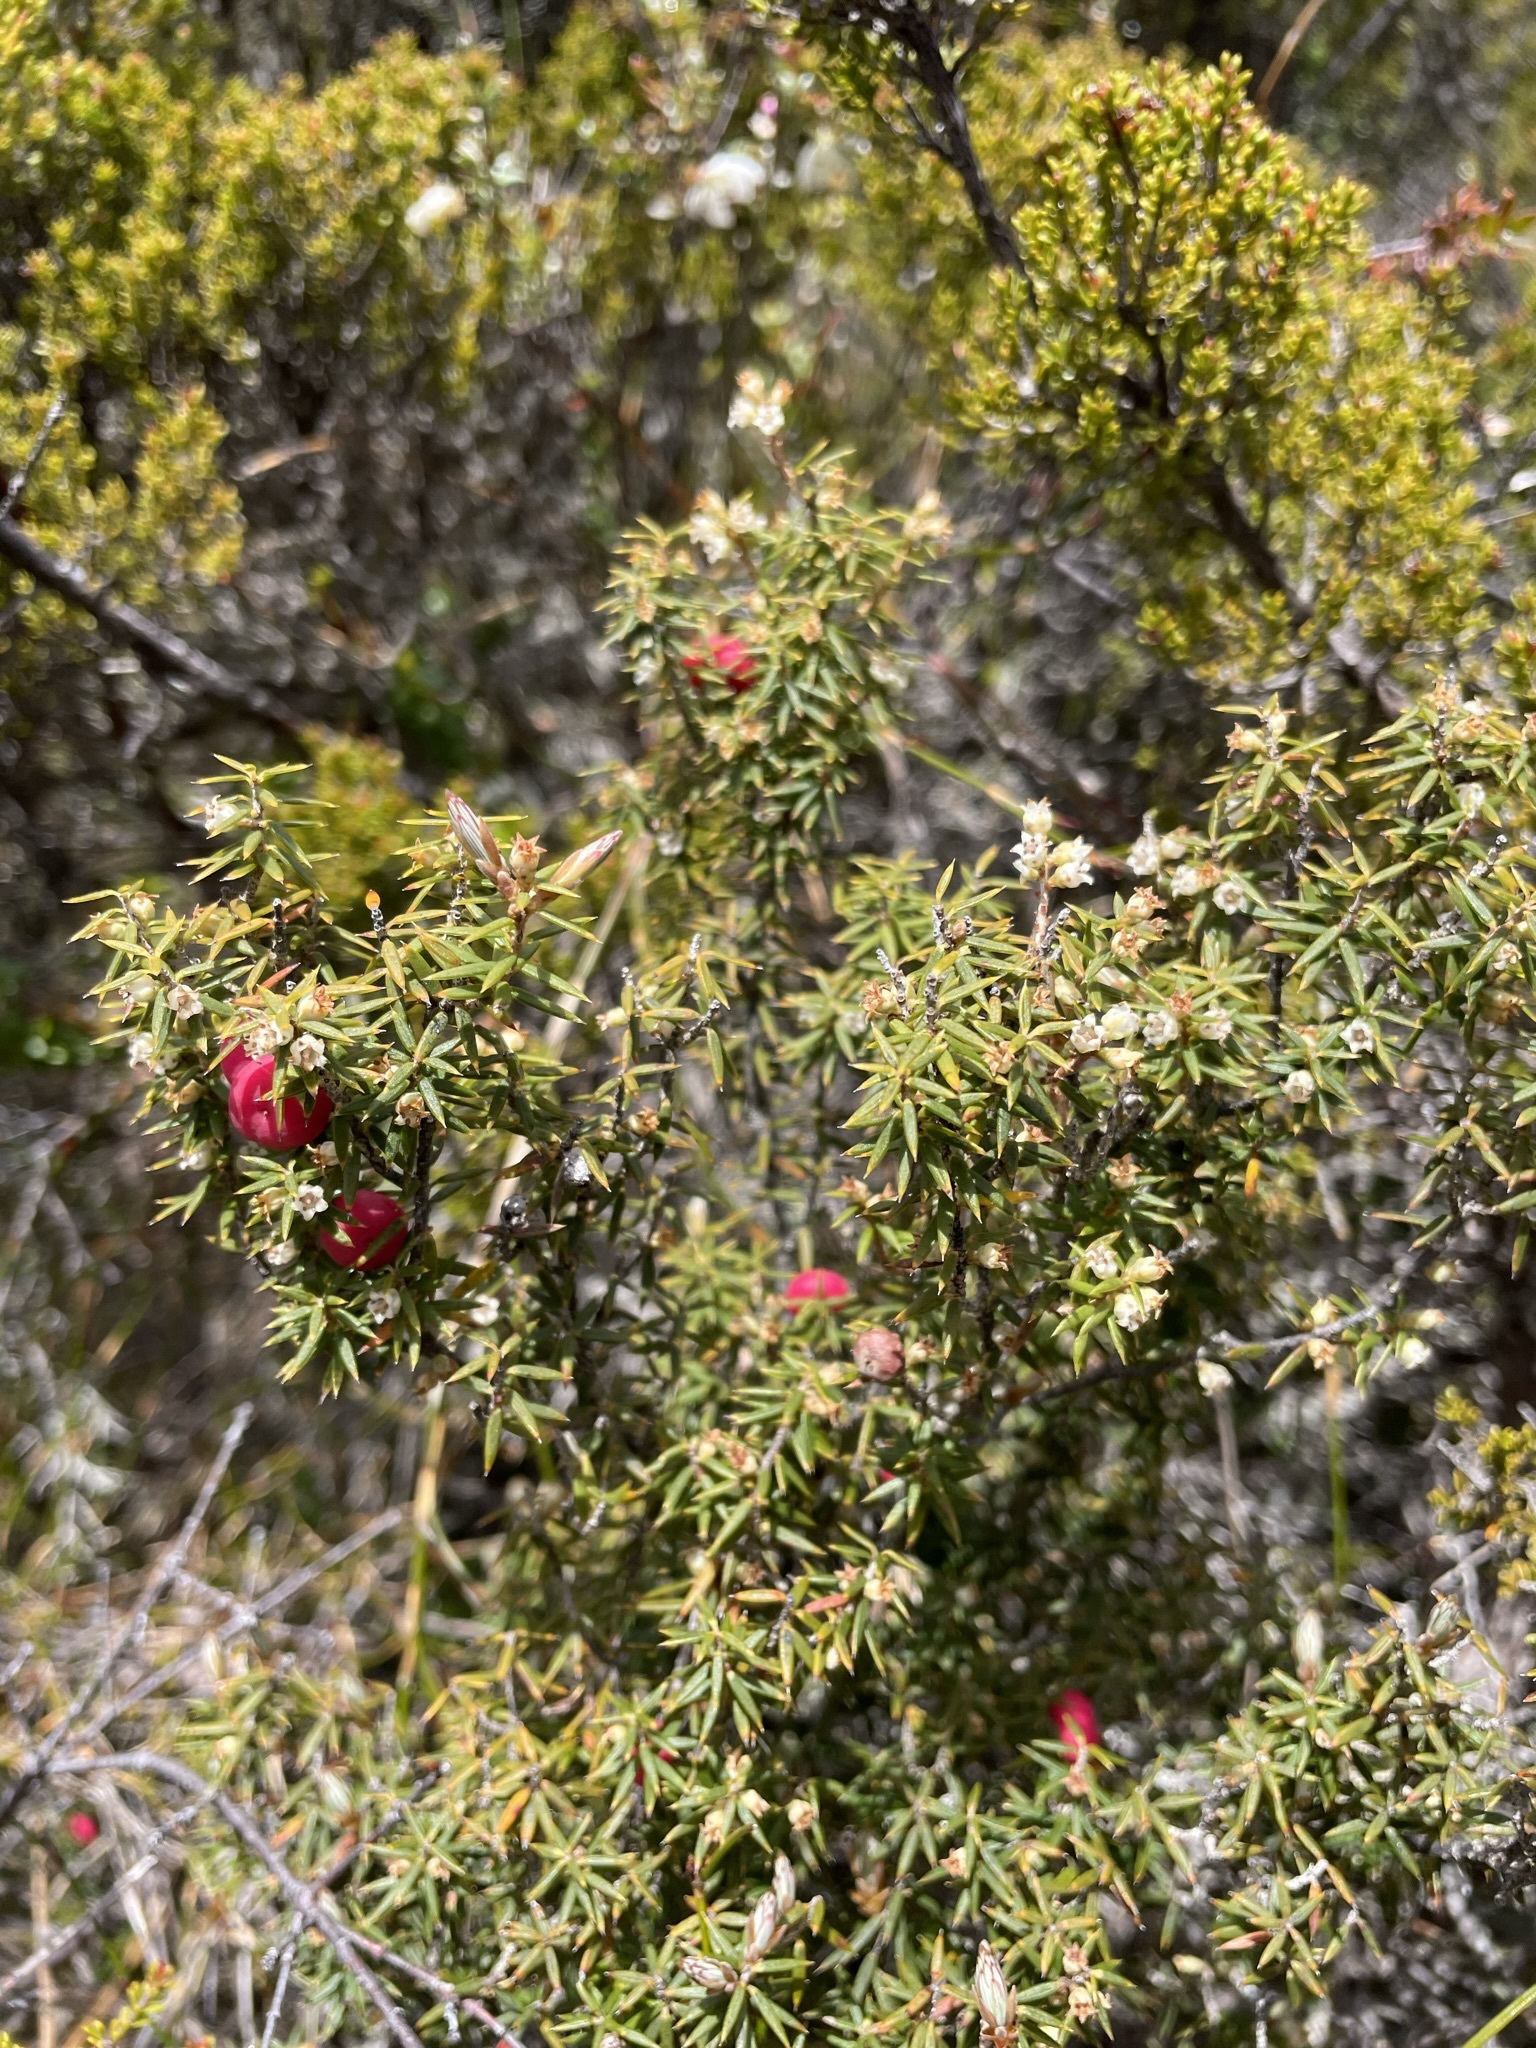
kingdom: Plantae
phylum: Tracheophyta
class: Magnoliopsida
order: Ericales
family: Ericaceae
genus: Leptecophylla
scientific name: Leptecophylla parvifolia
